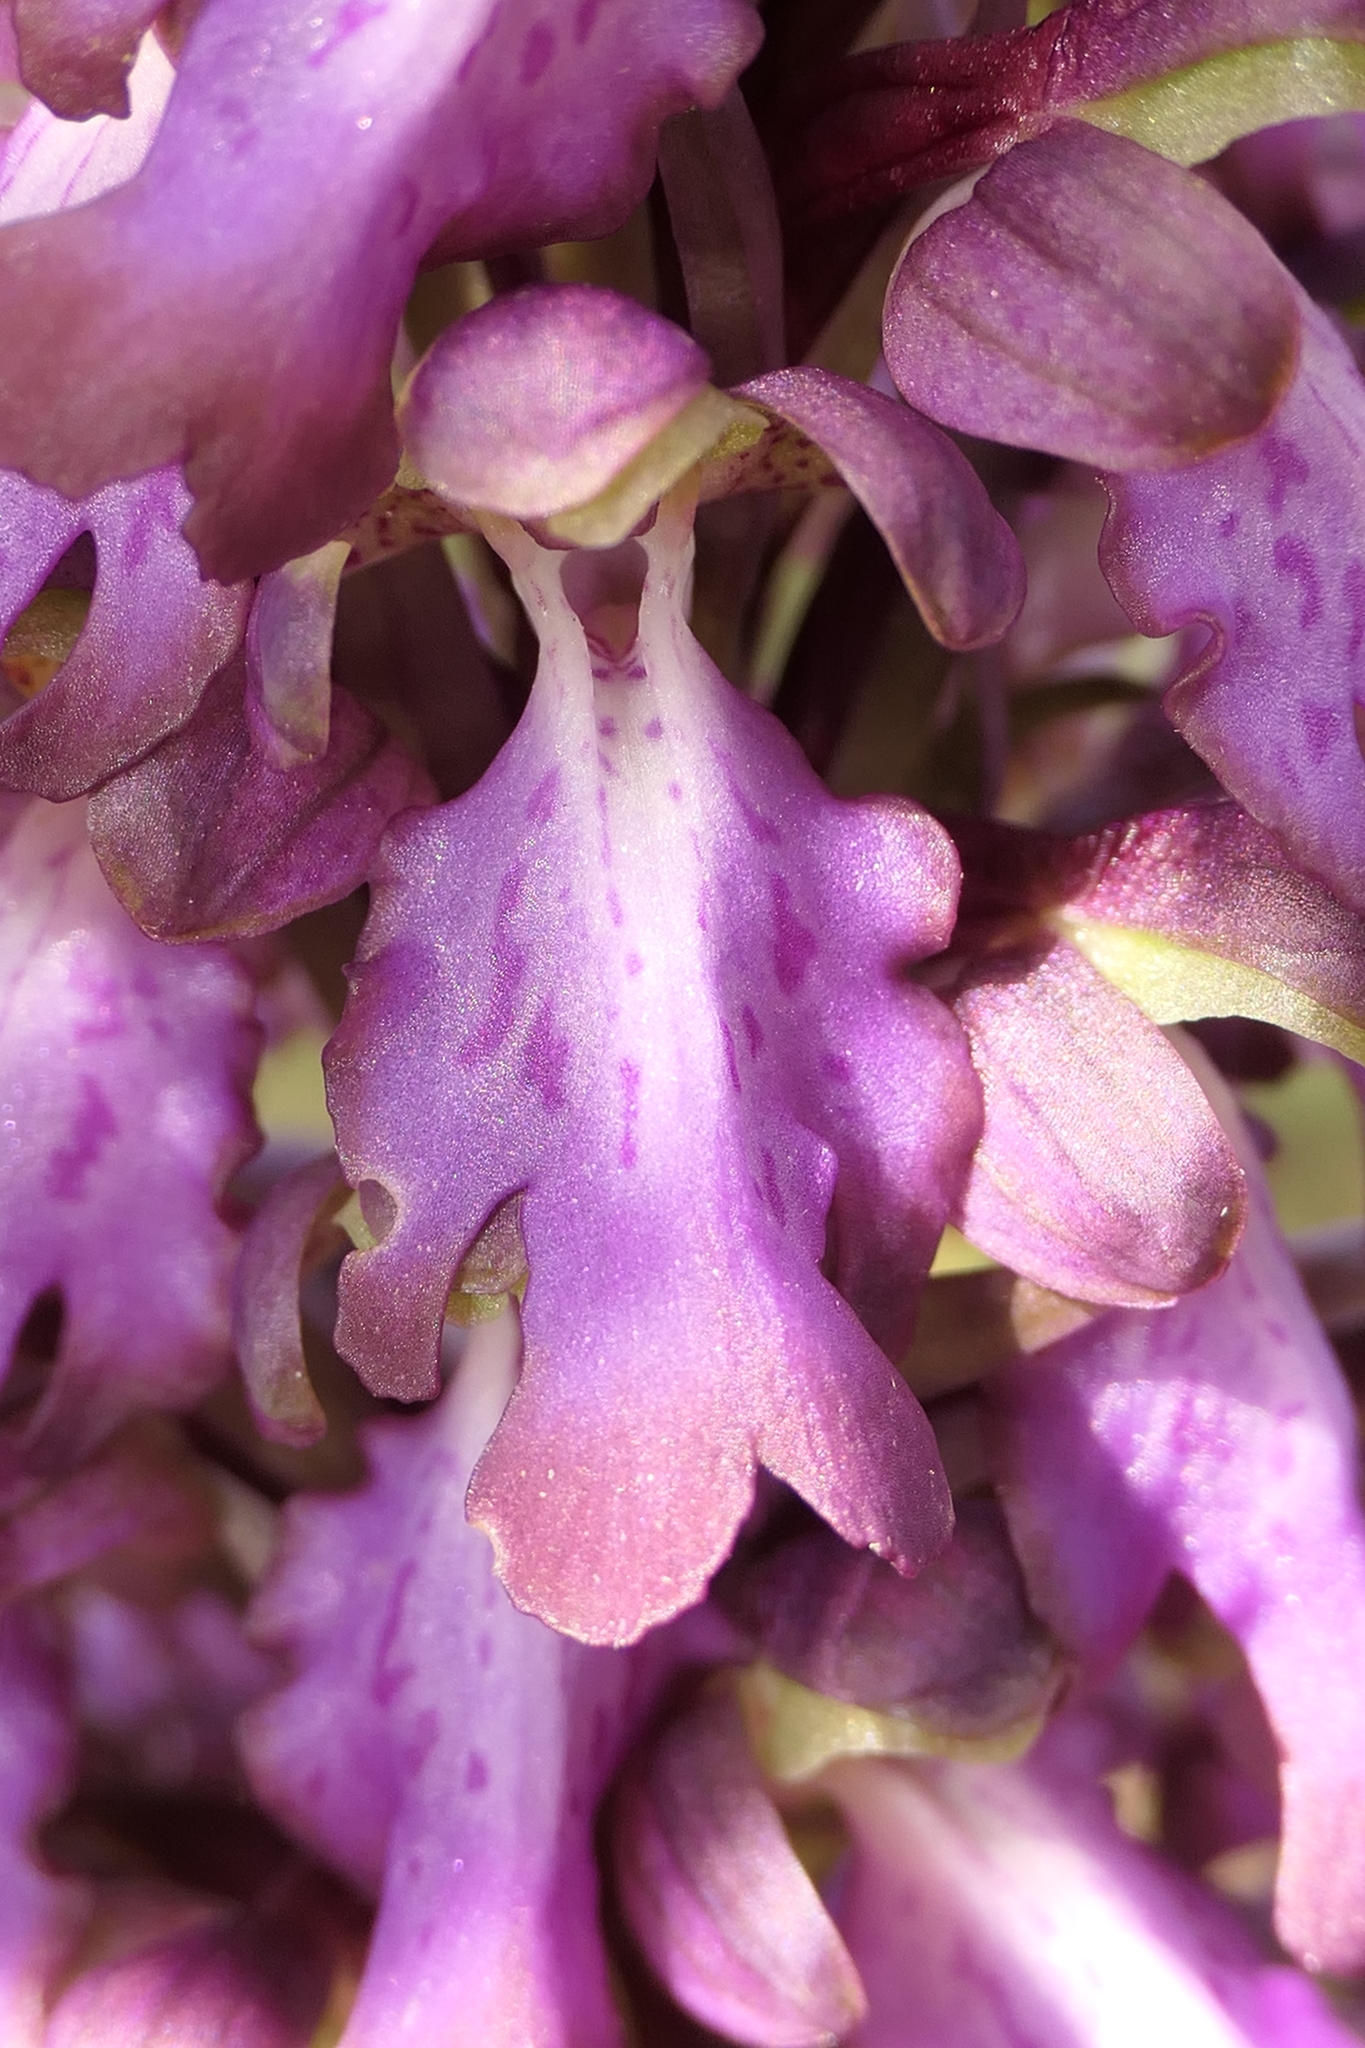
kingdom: Plantae
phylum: Tracheophyta
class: Liliopsida
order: Asparagales
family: Orchidaceae
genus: Himantoglossum
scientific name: Himantoglossum robertianum
